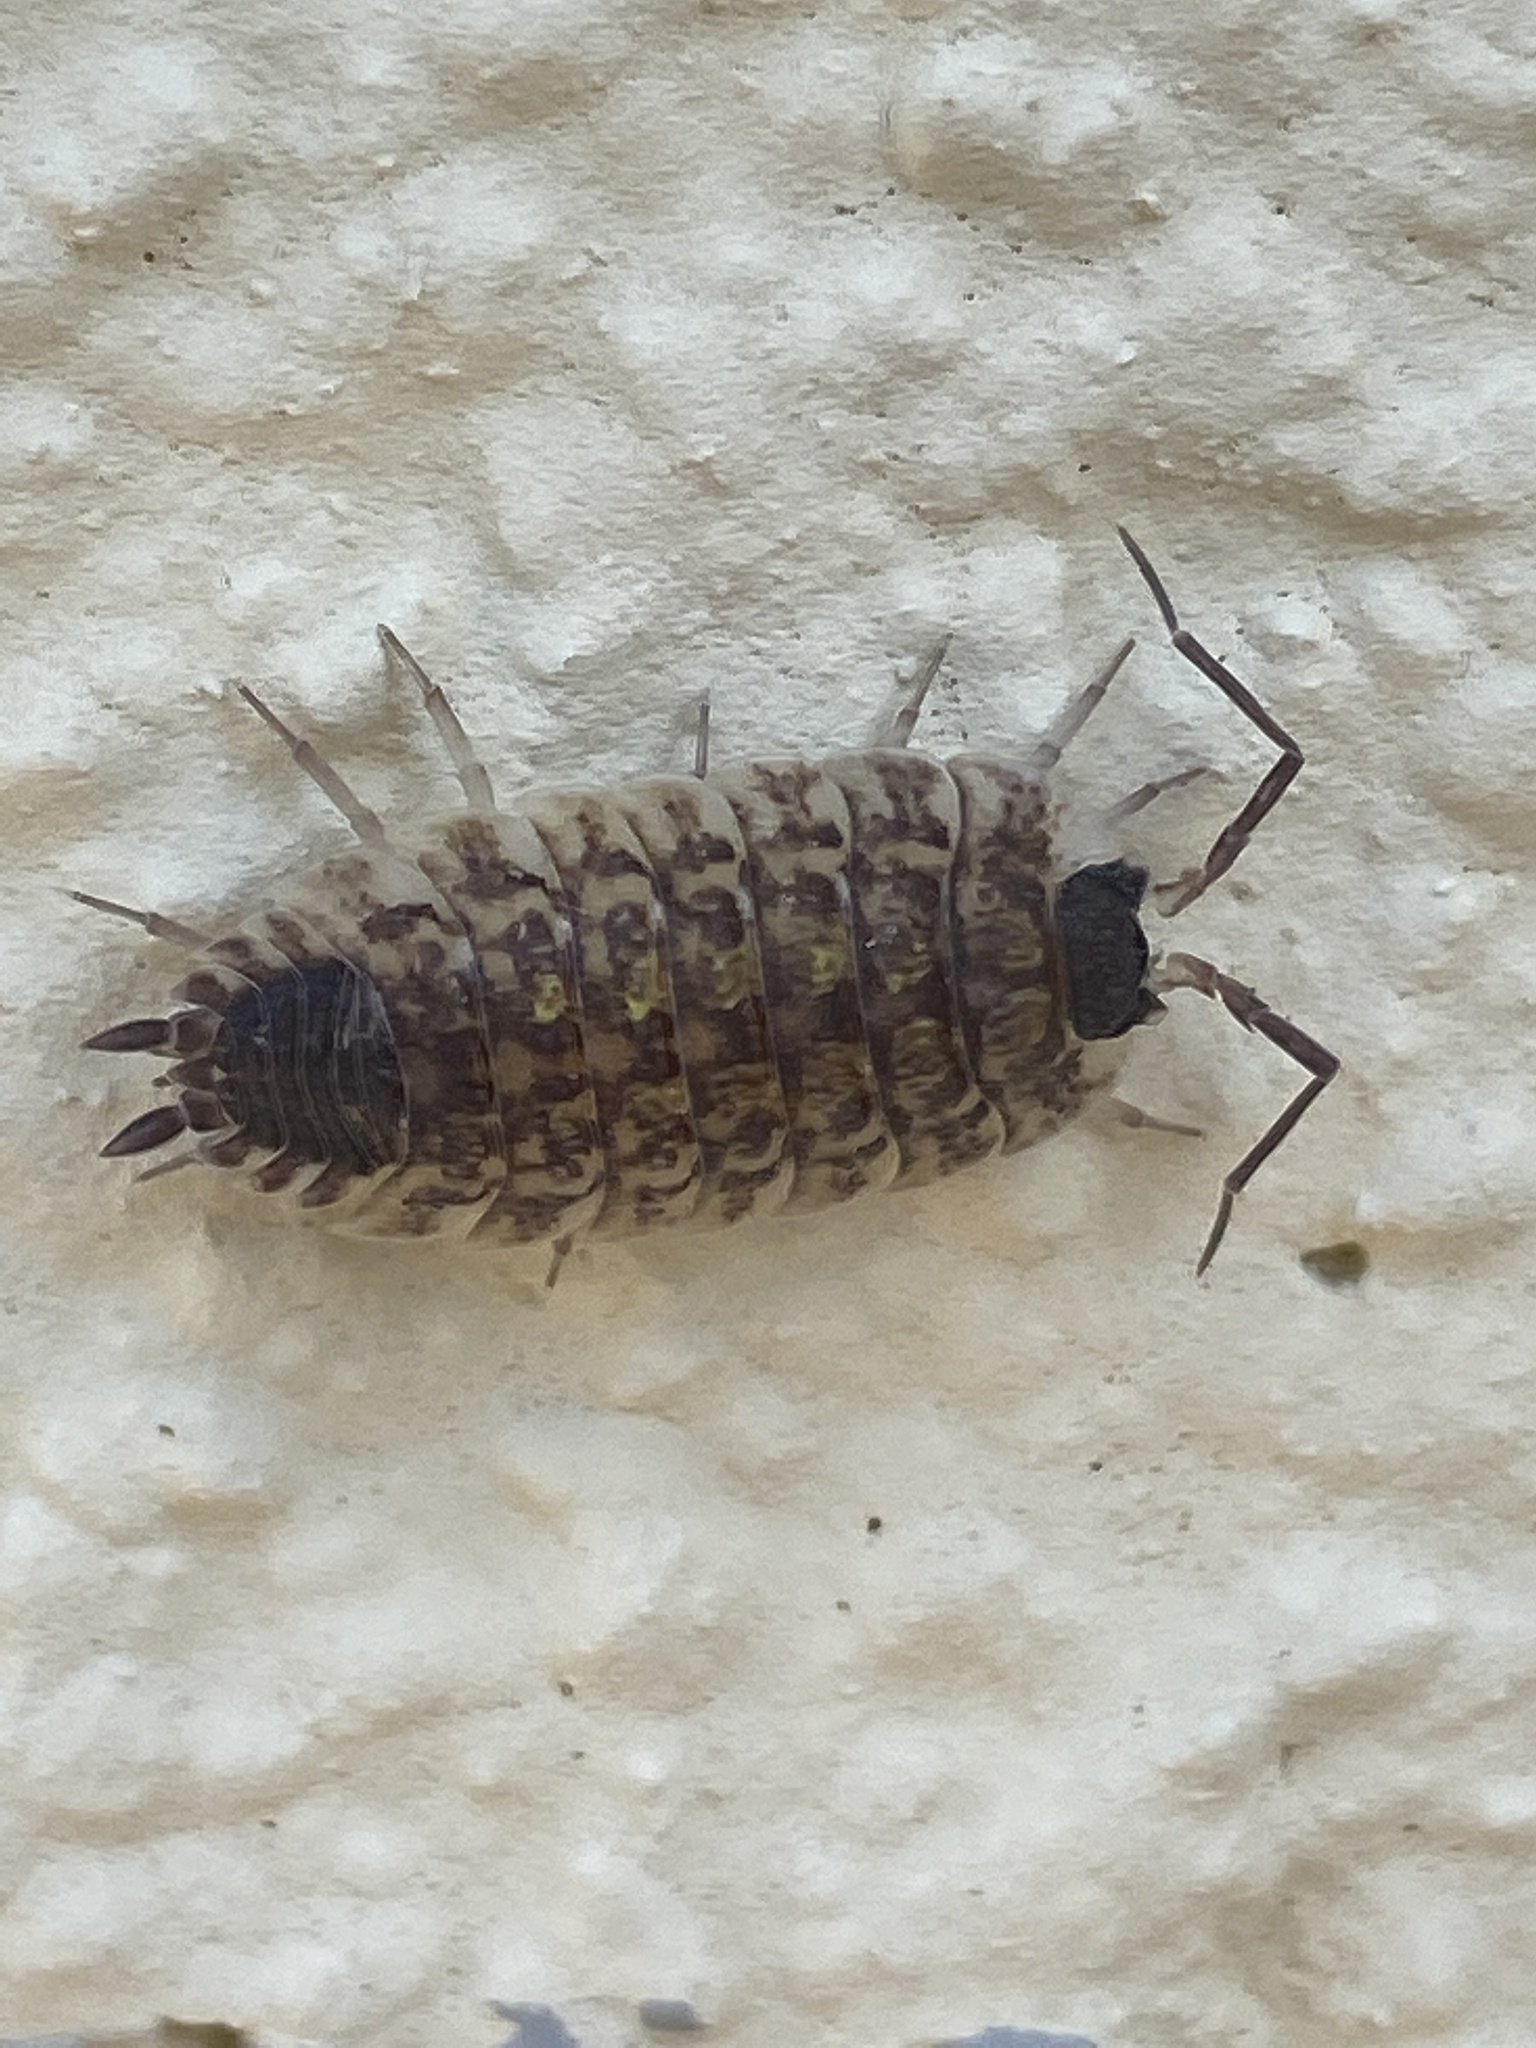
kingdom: Animalia
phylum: Arthropoda
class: Malacostraca
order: Isopoda
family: Porcellionidae
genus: Porcellio
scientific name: Porcellio spinicornis
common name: Painted woodlouse
